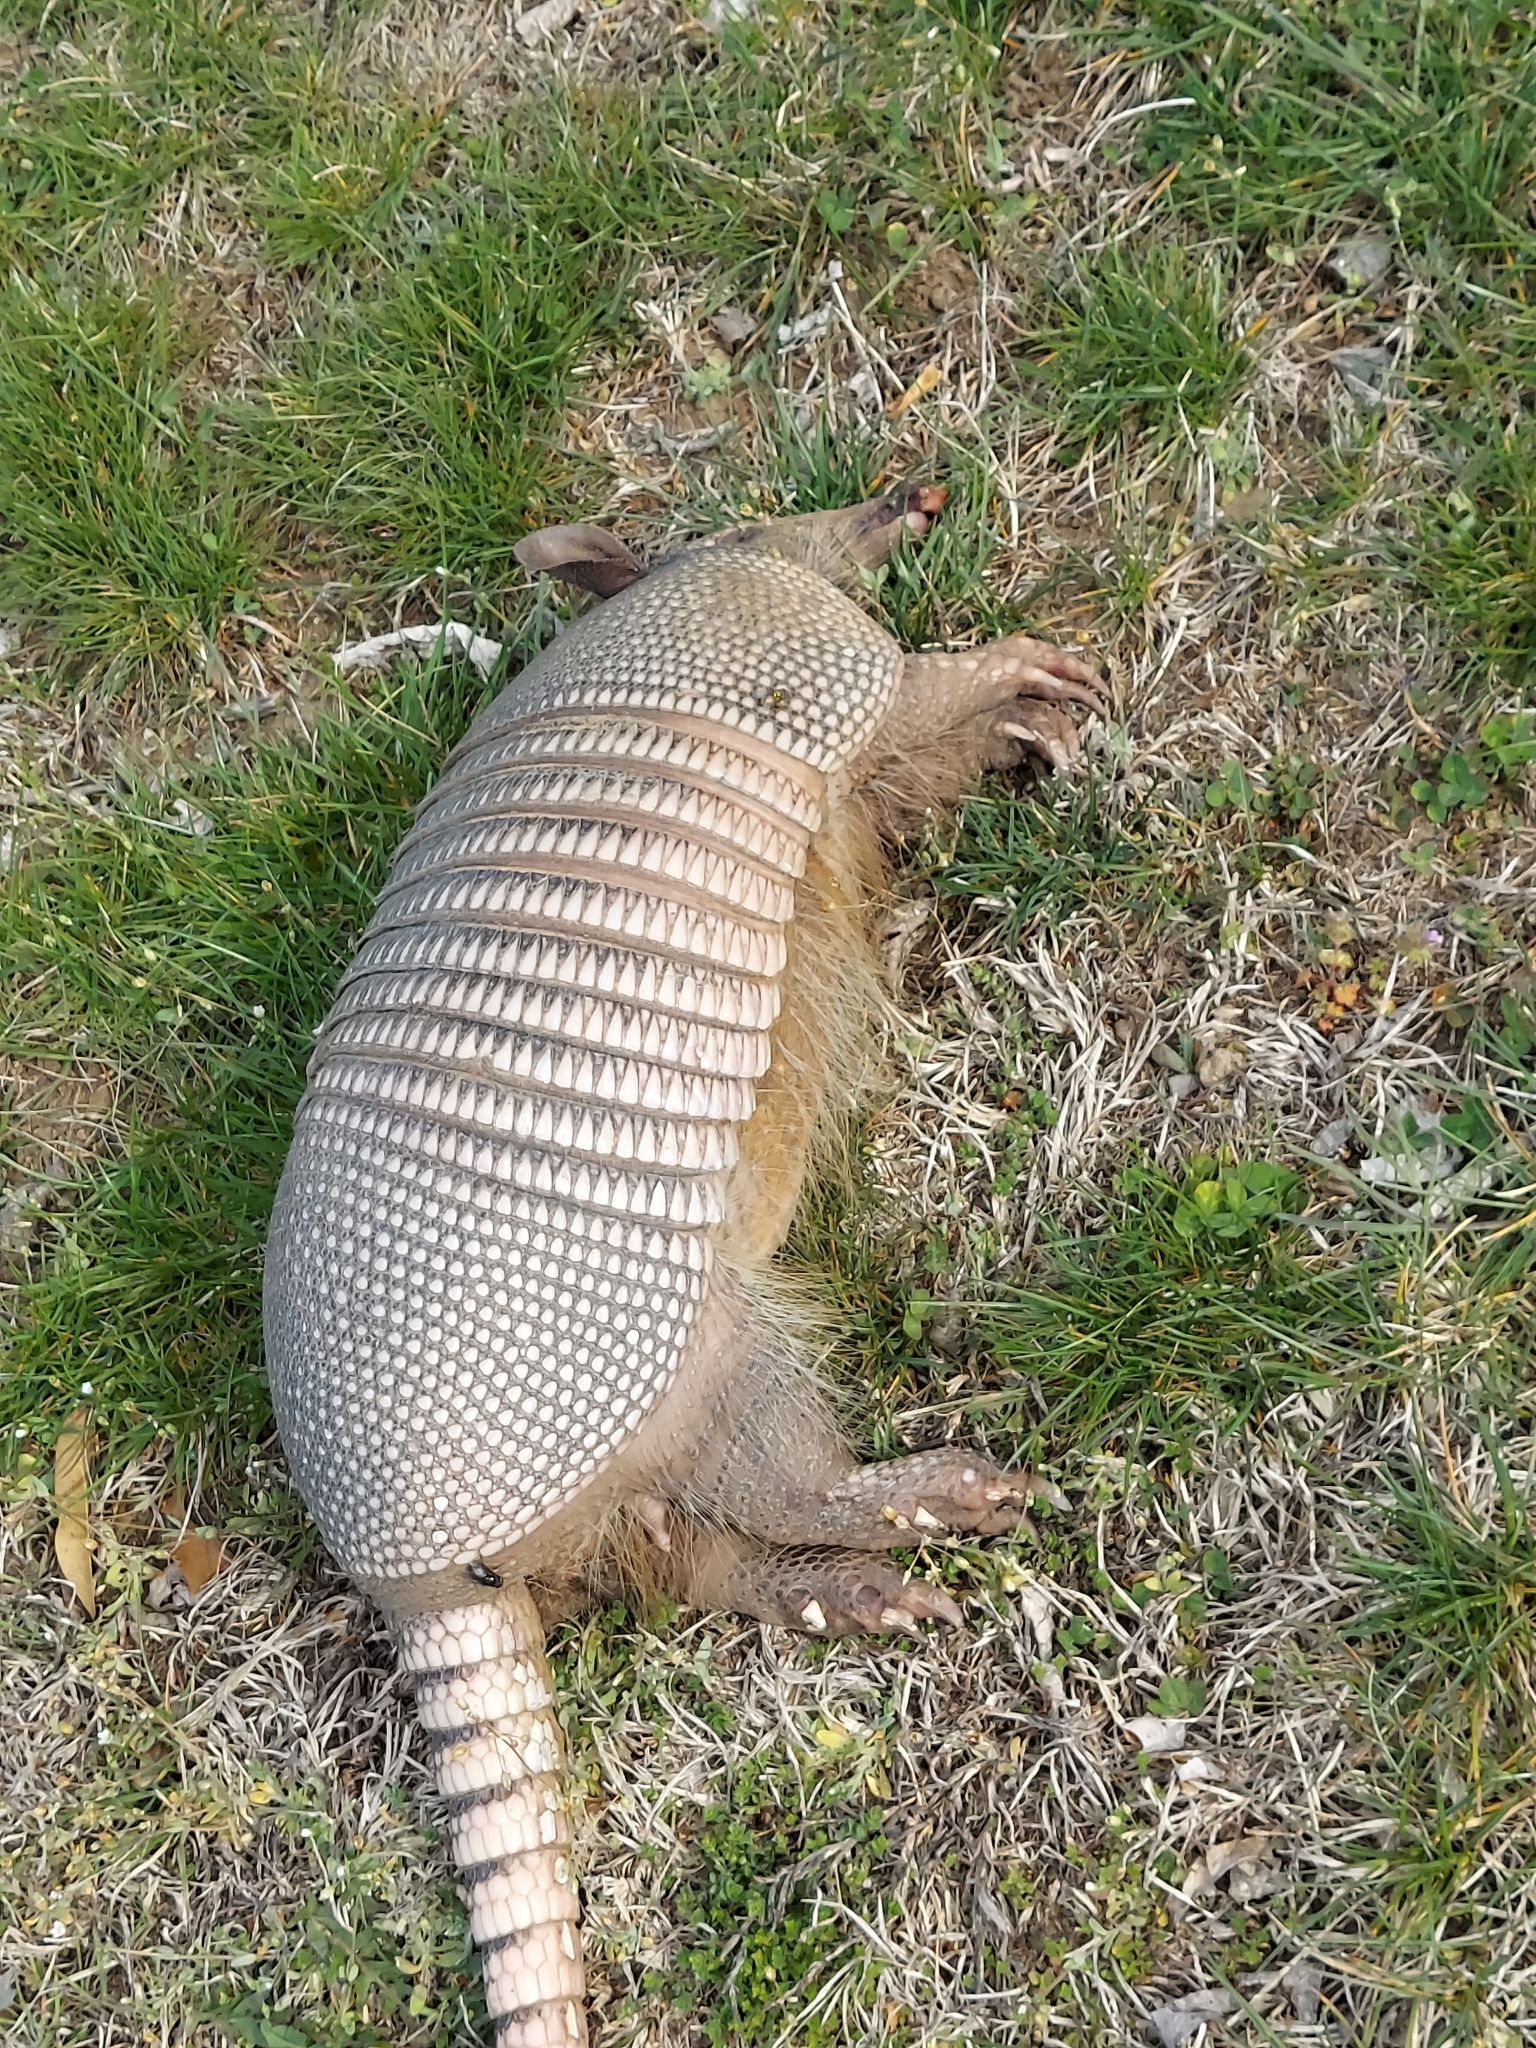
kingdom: Animalia
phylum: Chordata
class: Mammalia
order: Cingulata
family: Dasypodidae
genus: Dasypus
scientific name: Dasypus novemcinctus
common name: Nine-banded armadillo
